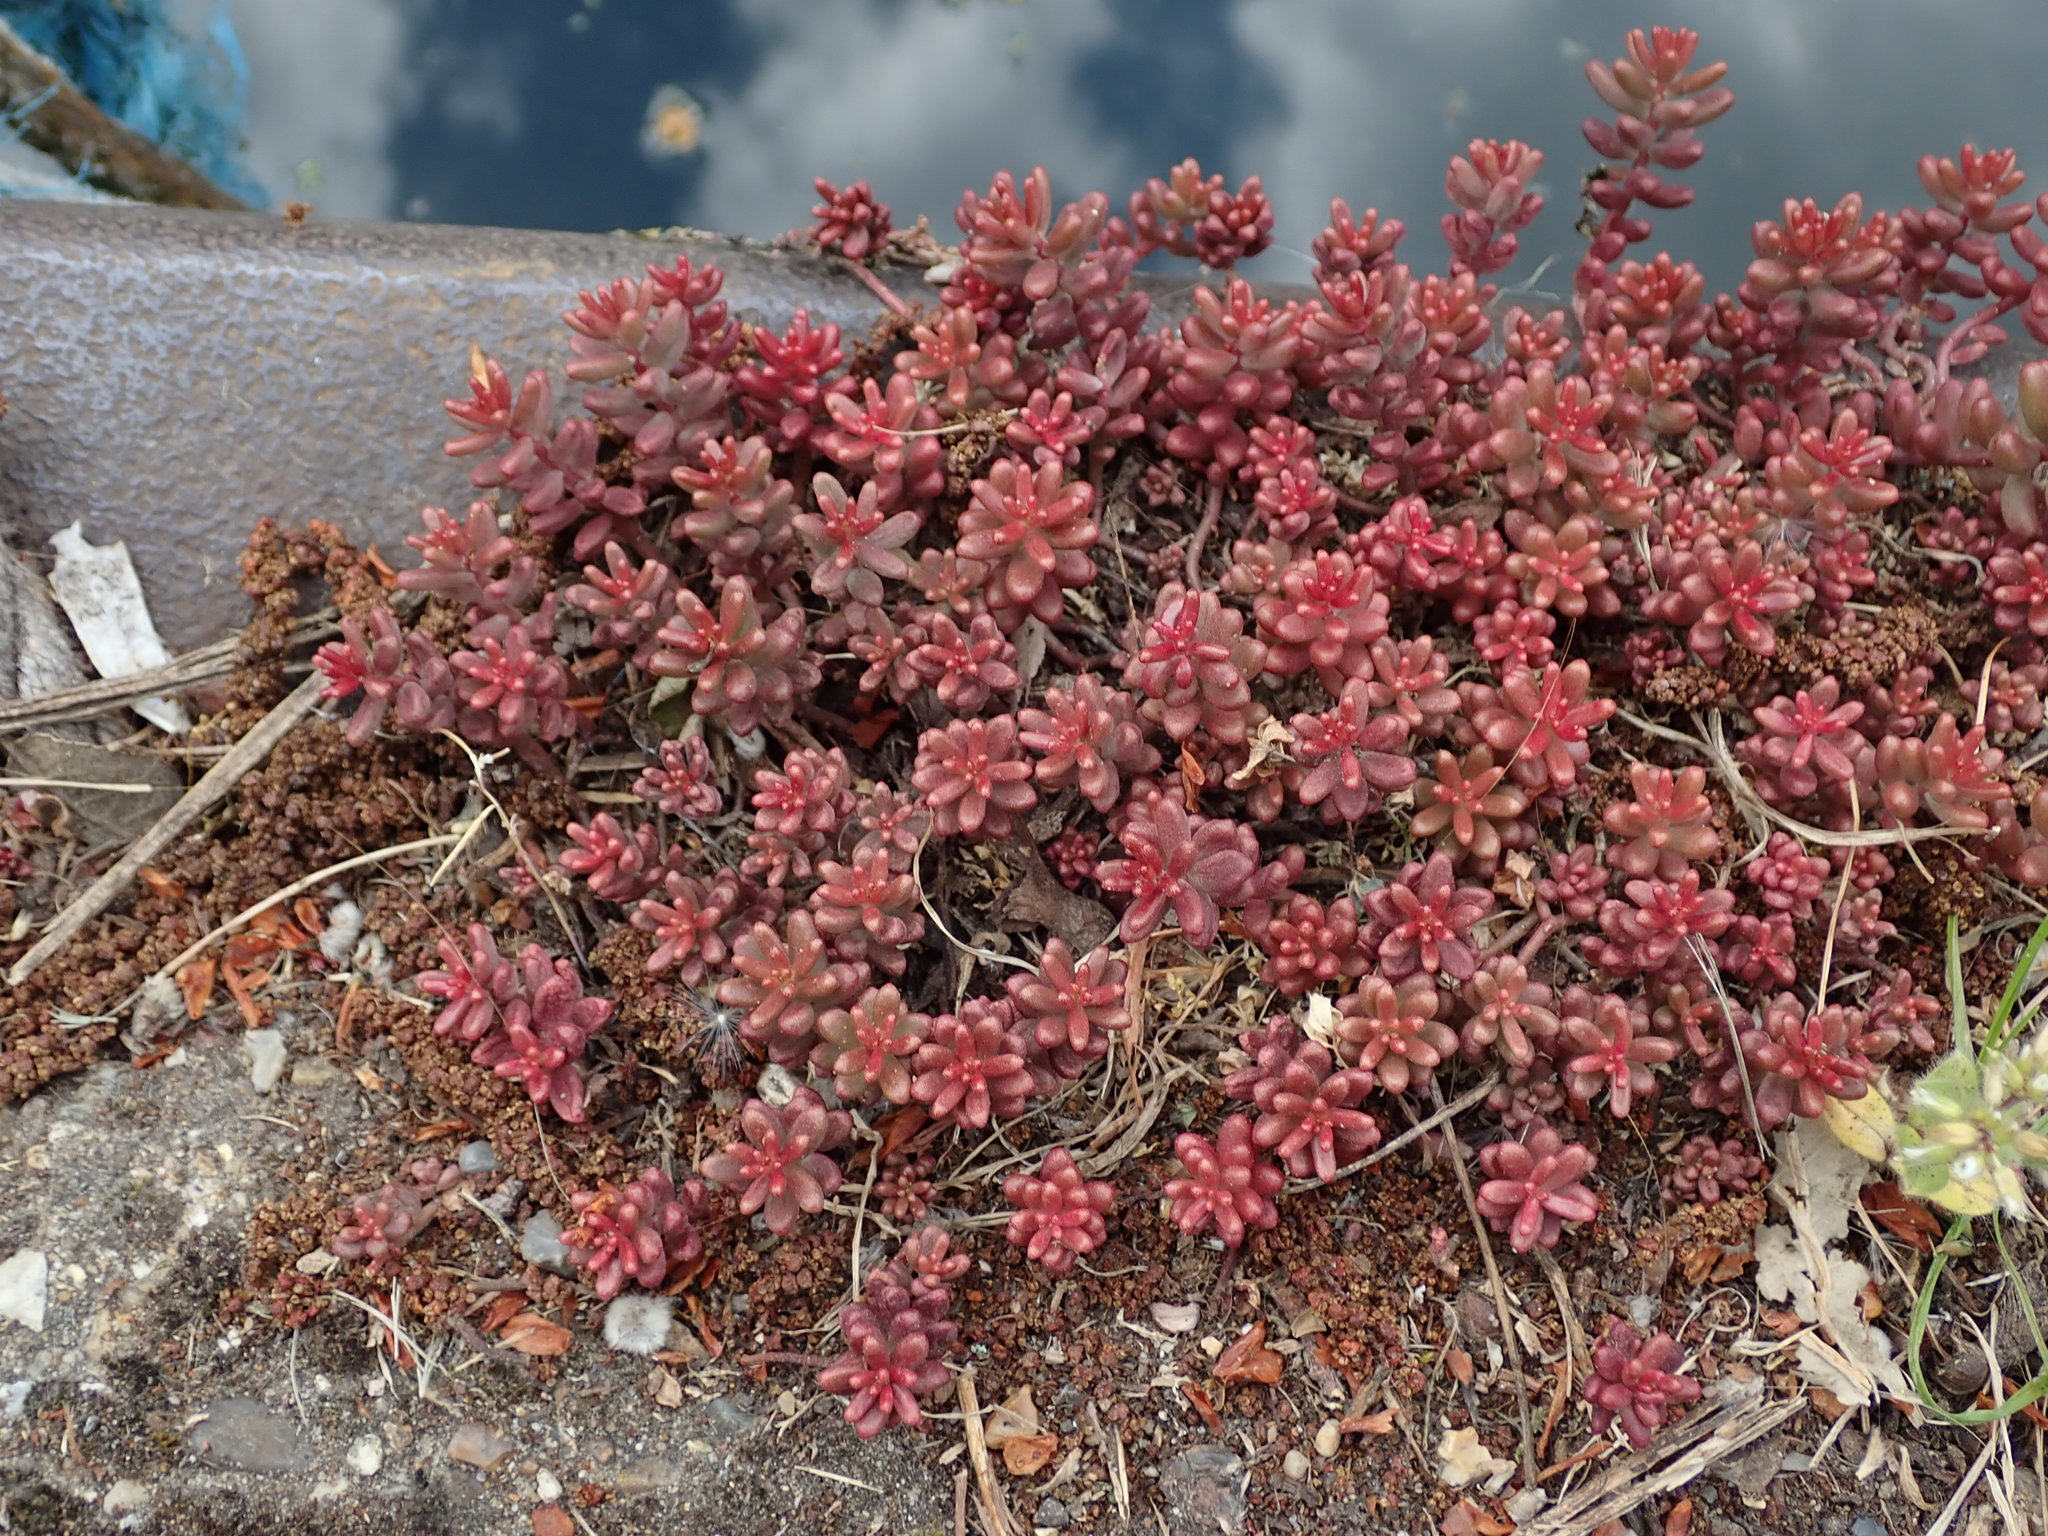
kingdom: Plantae
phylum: Tracheophyta
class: Magnoliopsida
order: Saxifragales
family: Crassulaceae
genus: Sedum
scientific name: Sedum album
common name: White stonecrop
